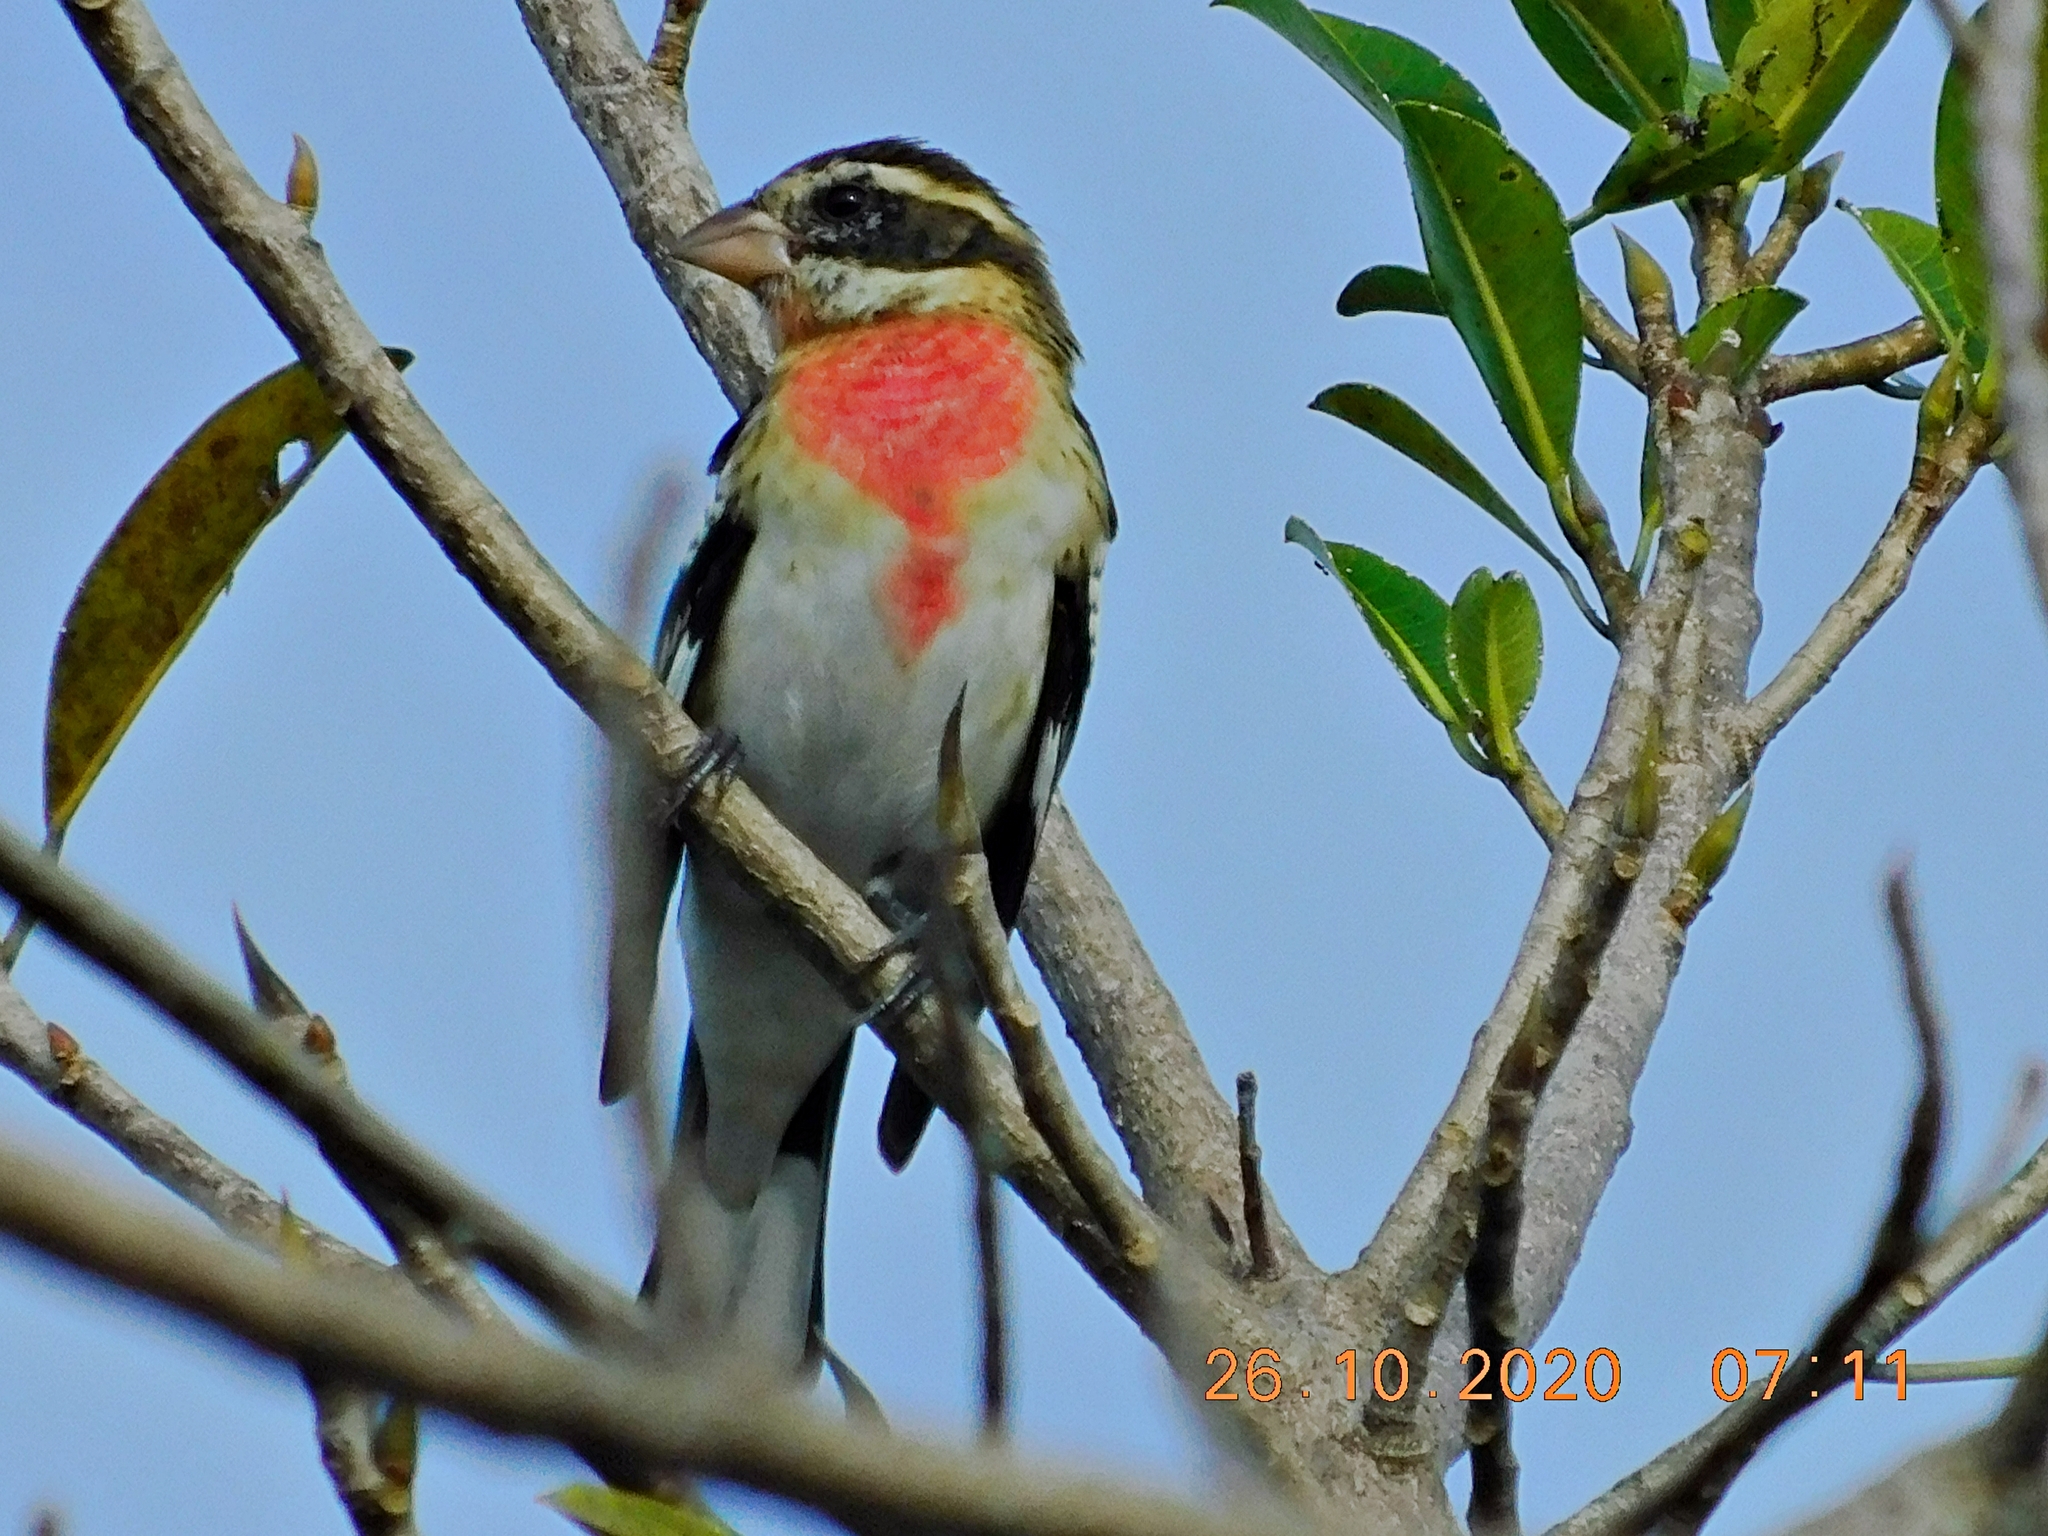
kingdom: Animalia
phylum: Chordata
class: Aves
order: Passeriformes
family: Cardinalidae
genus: Pheucticus
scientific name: Pheucticus ludovicianus
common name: Rose-breasted grosbeak
